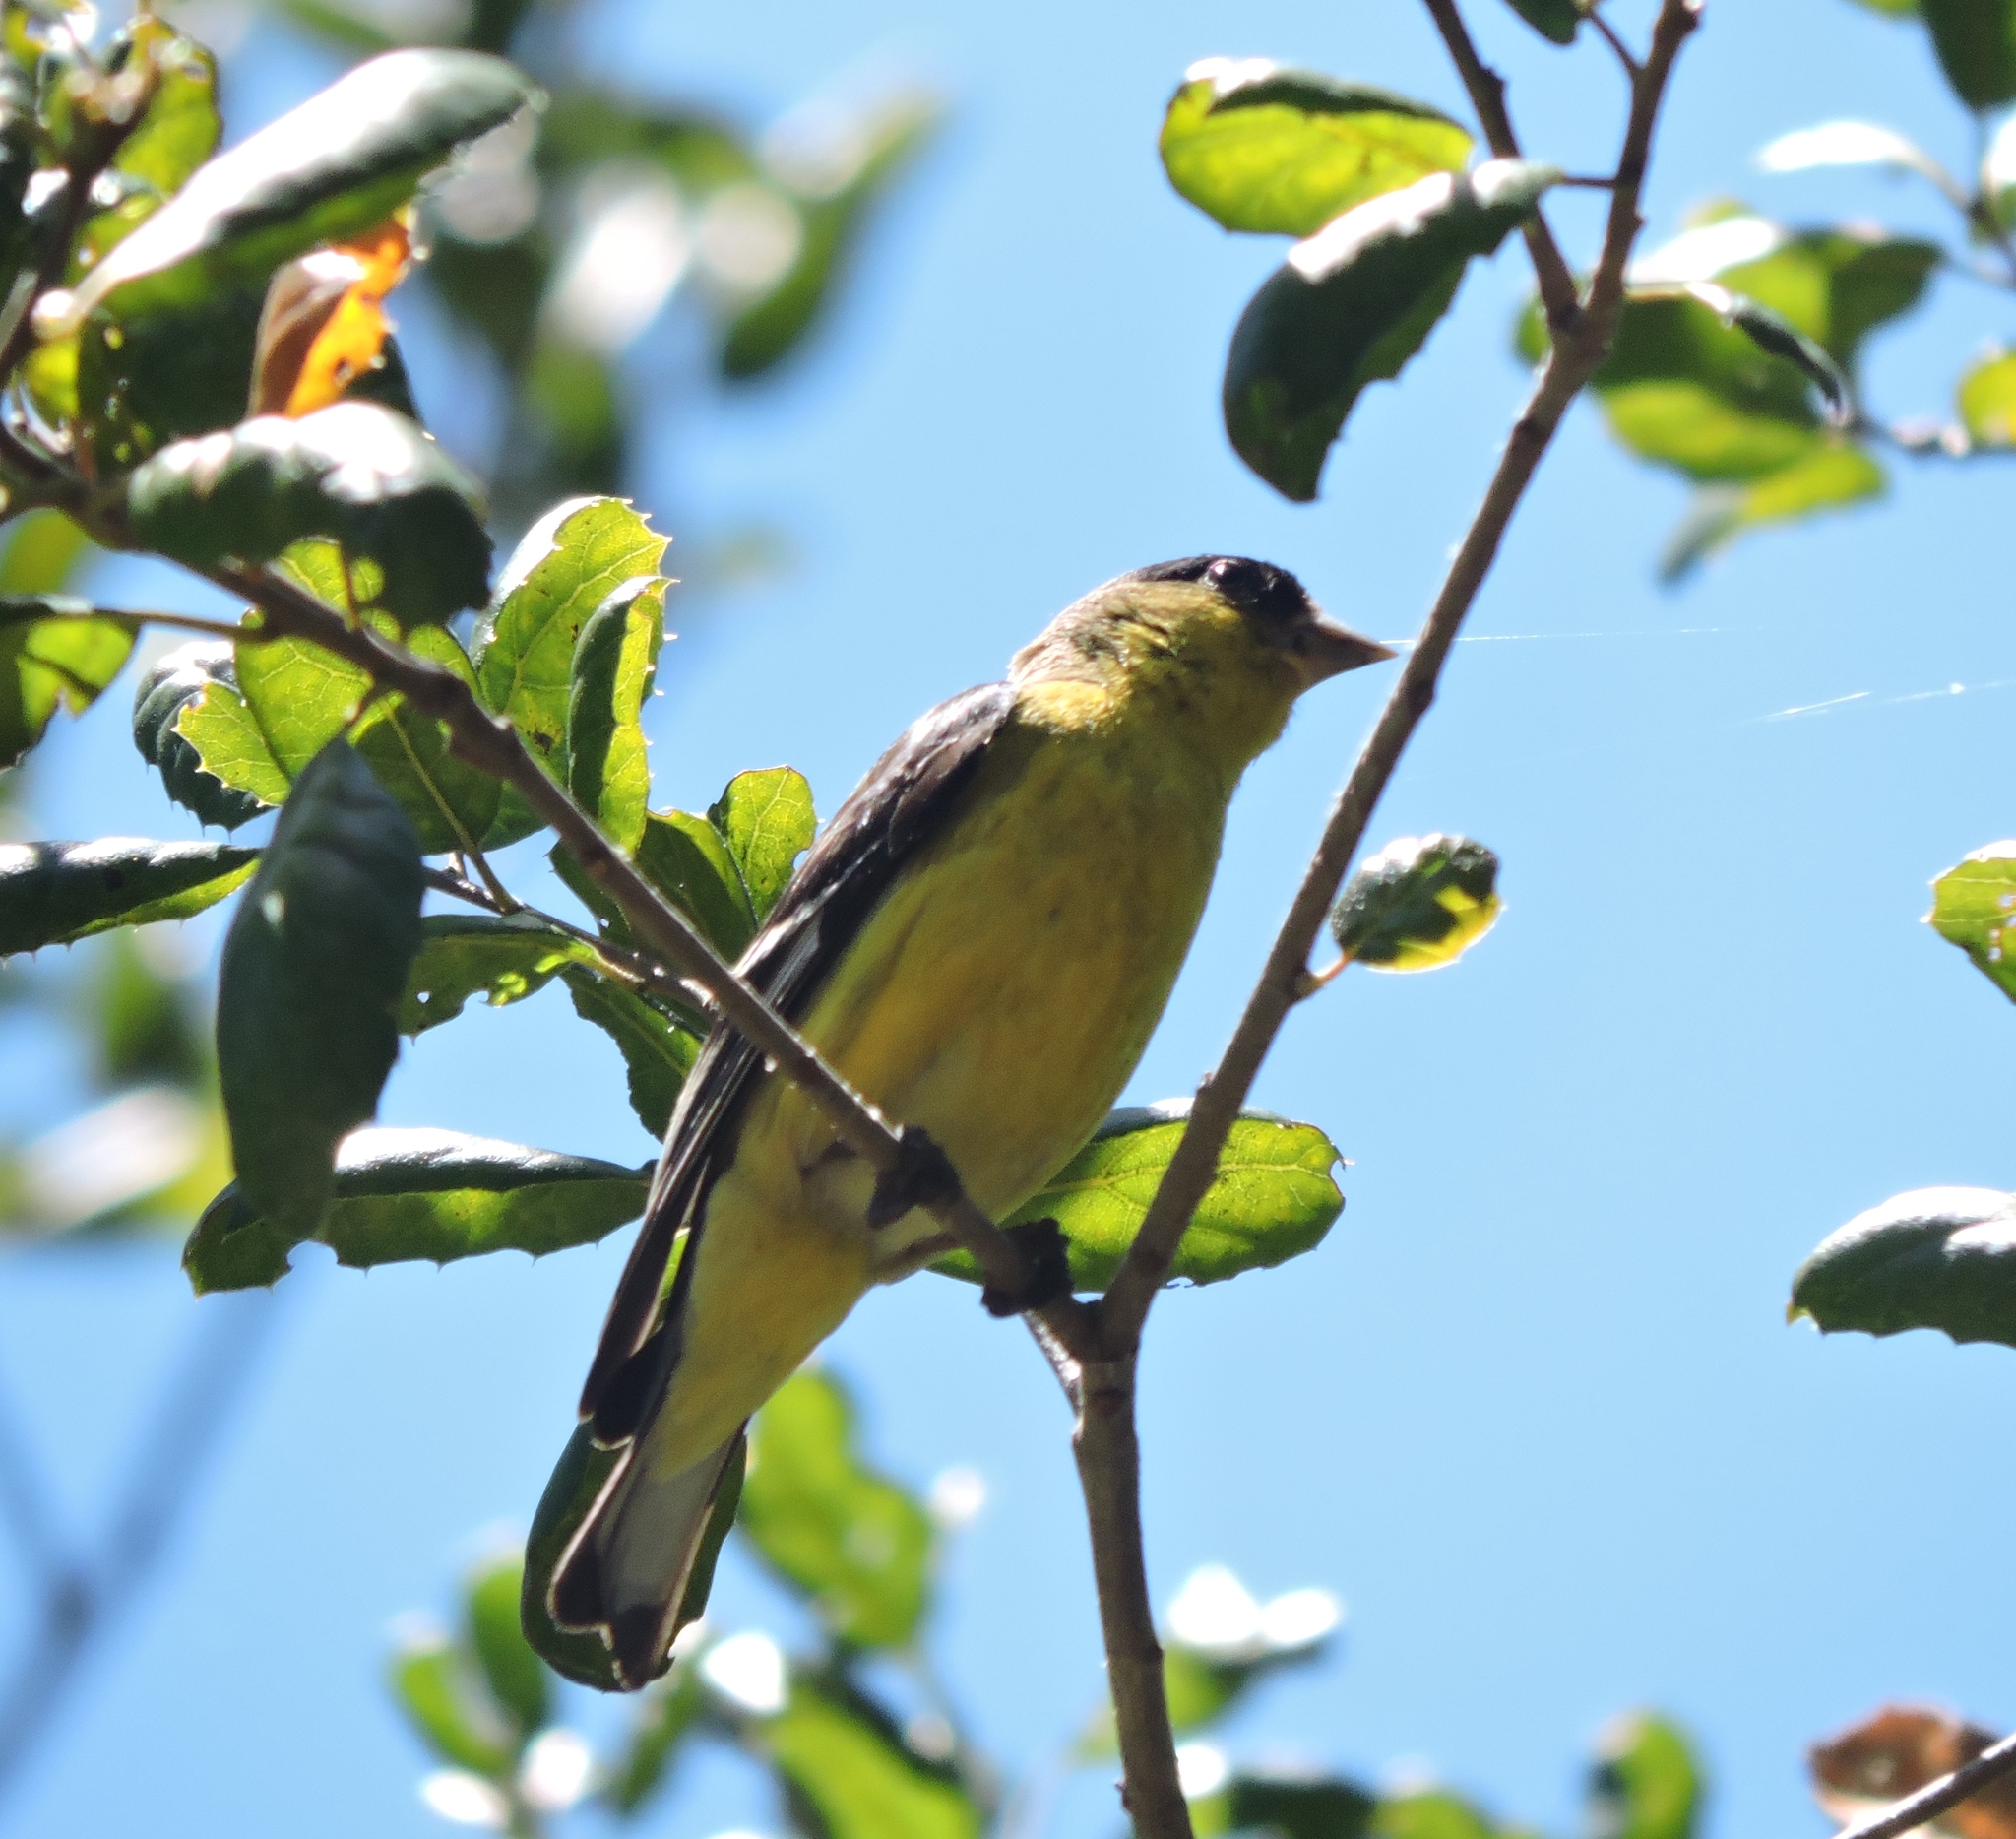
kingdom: Animalia
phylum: Chordata
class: Aves
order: Passeriformes
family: Fringillidae
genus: Spinus
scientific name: Spinus psaltria
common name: Lesser goldfinch
